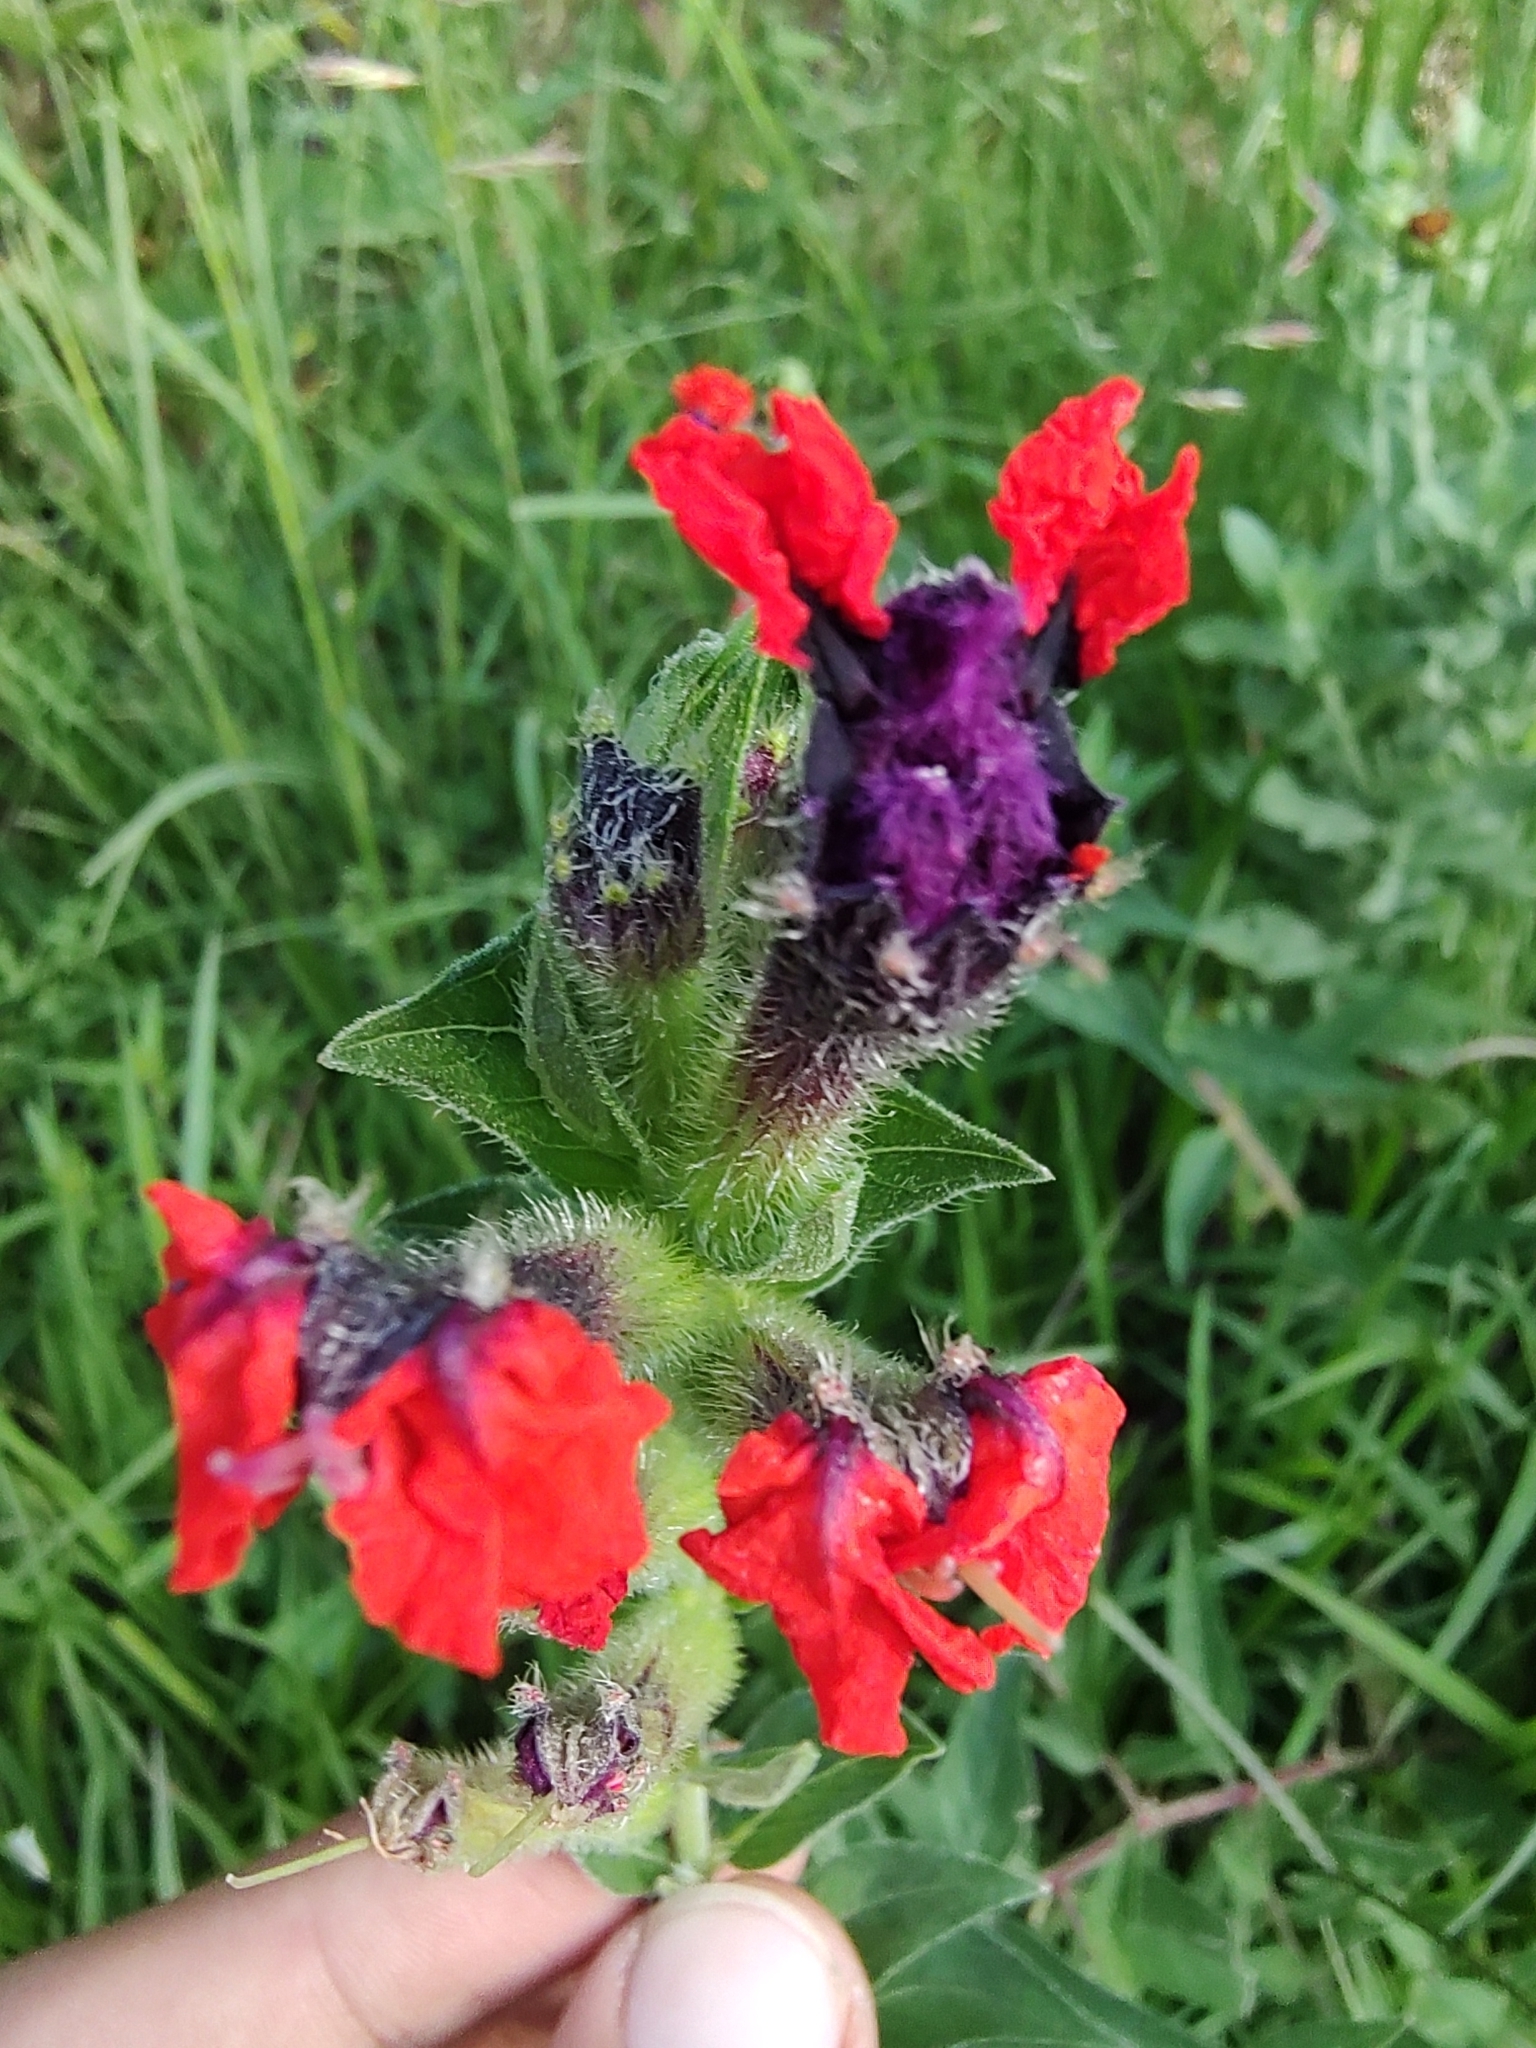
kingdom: Plantae
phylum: Tracheophyta
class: Magnoliopsida
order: Myrtales
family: Lythraceae
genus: Cuphea
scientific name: Cuphea llavea
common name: Tiny-mice
